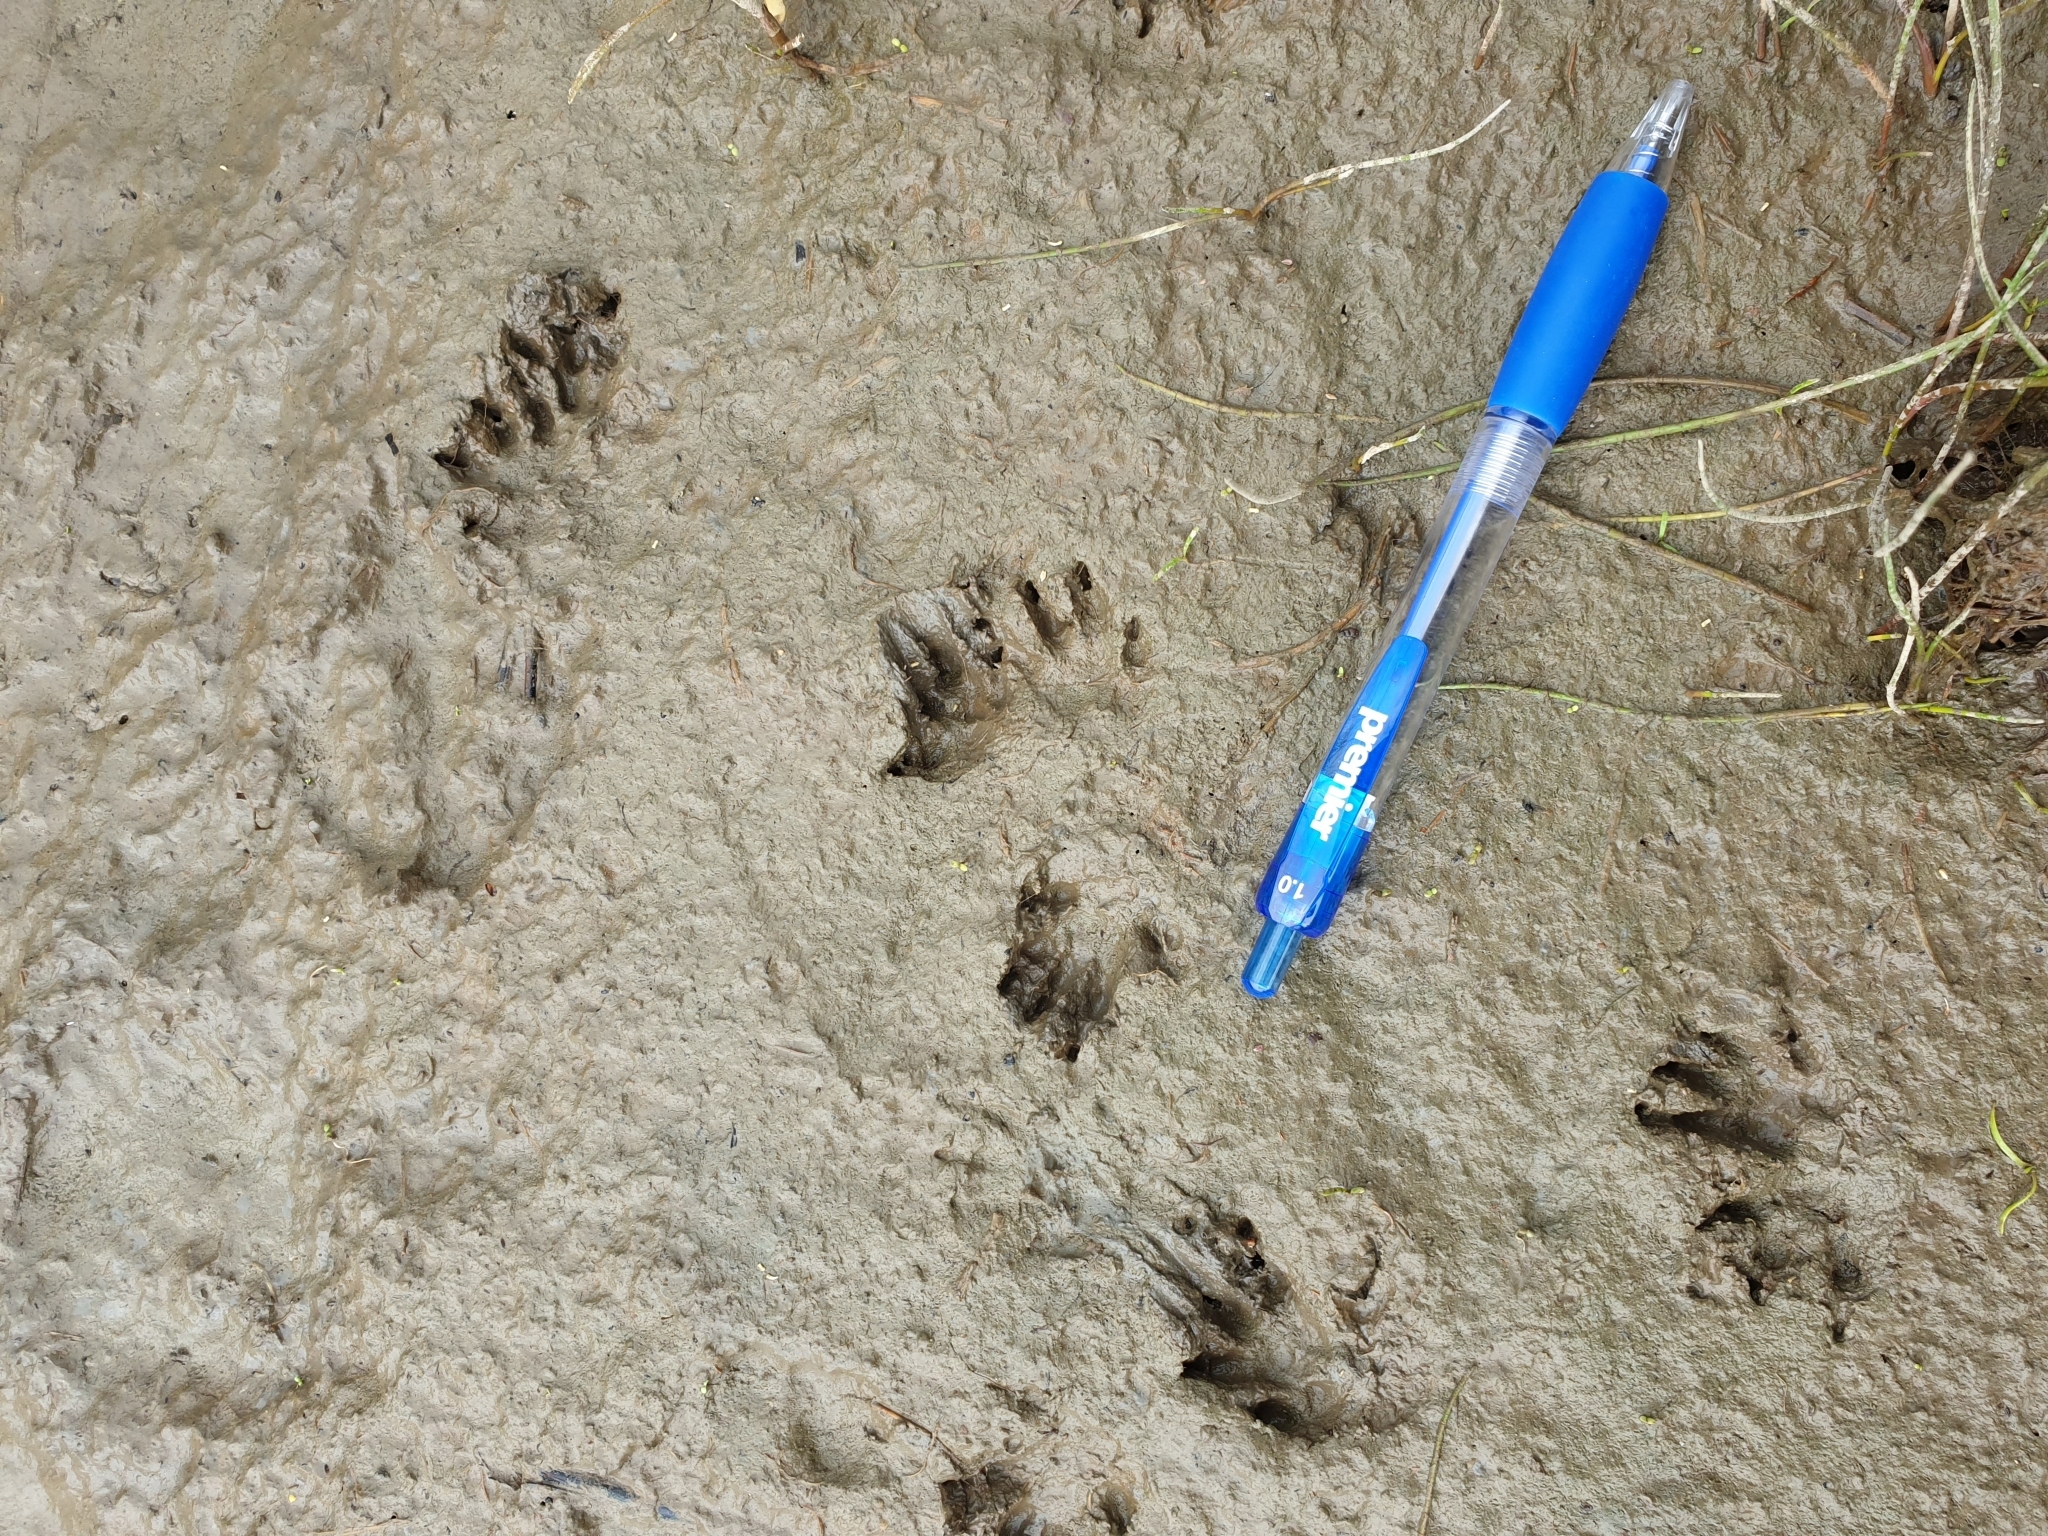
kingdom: Animalia
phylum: Chordata
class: Mammalia
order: Erinaceomorpha
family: Erinaceidae
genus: Erinaceus
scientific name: Erinaceus europaeus
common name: West european hedgehog
